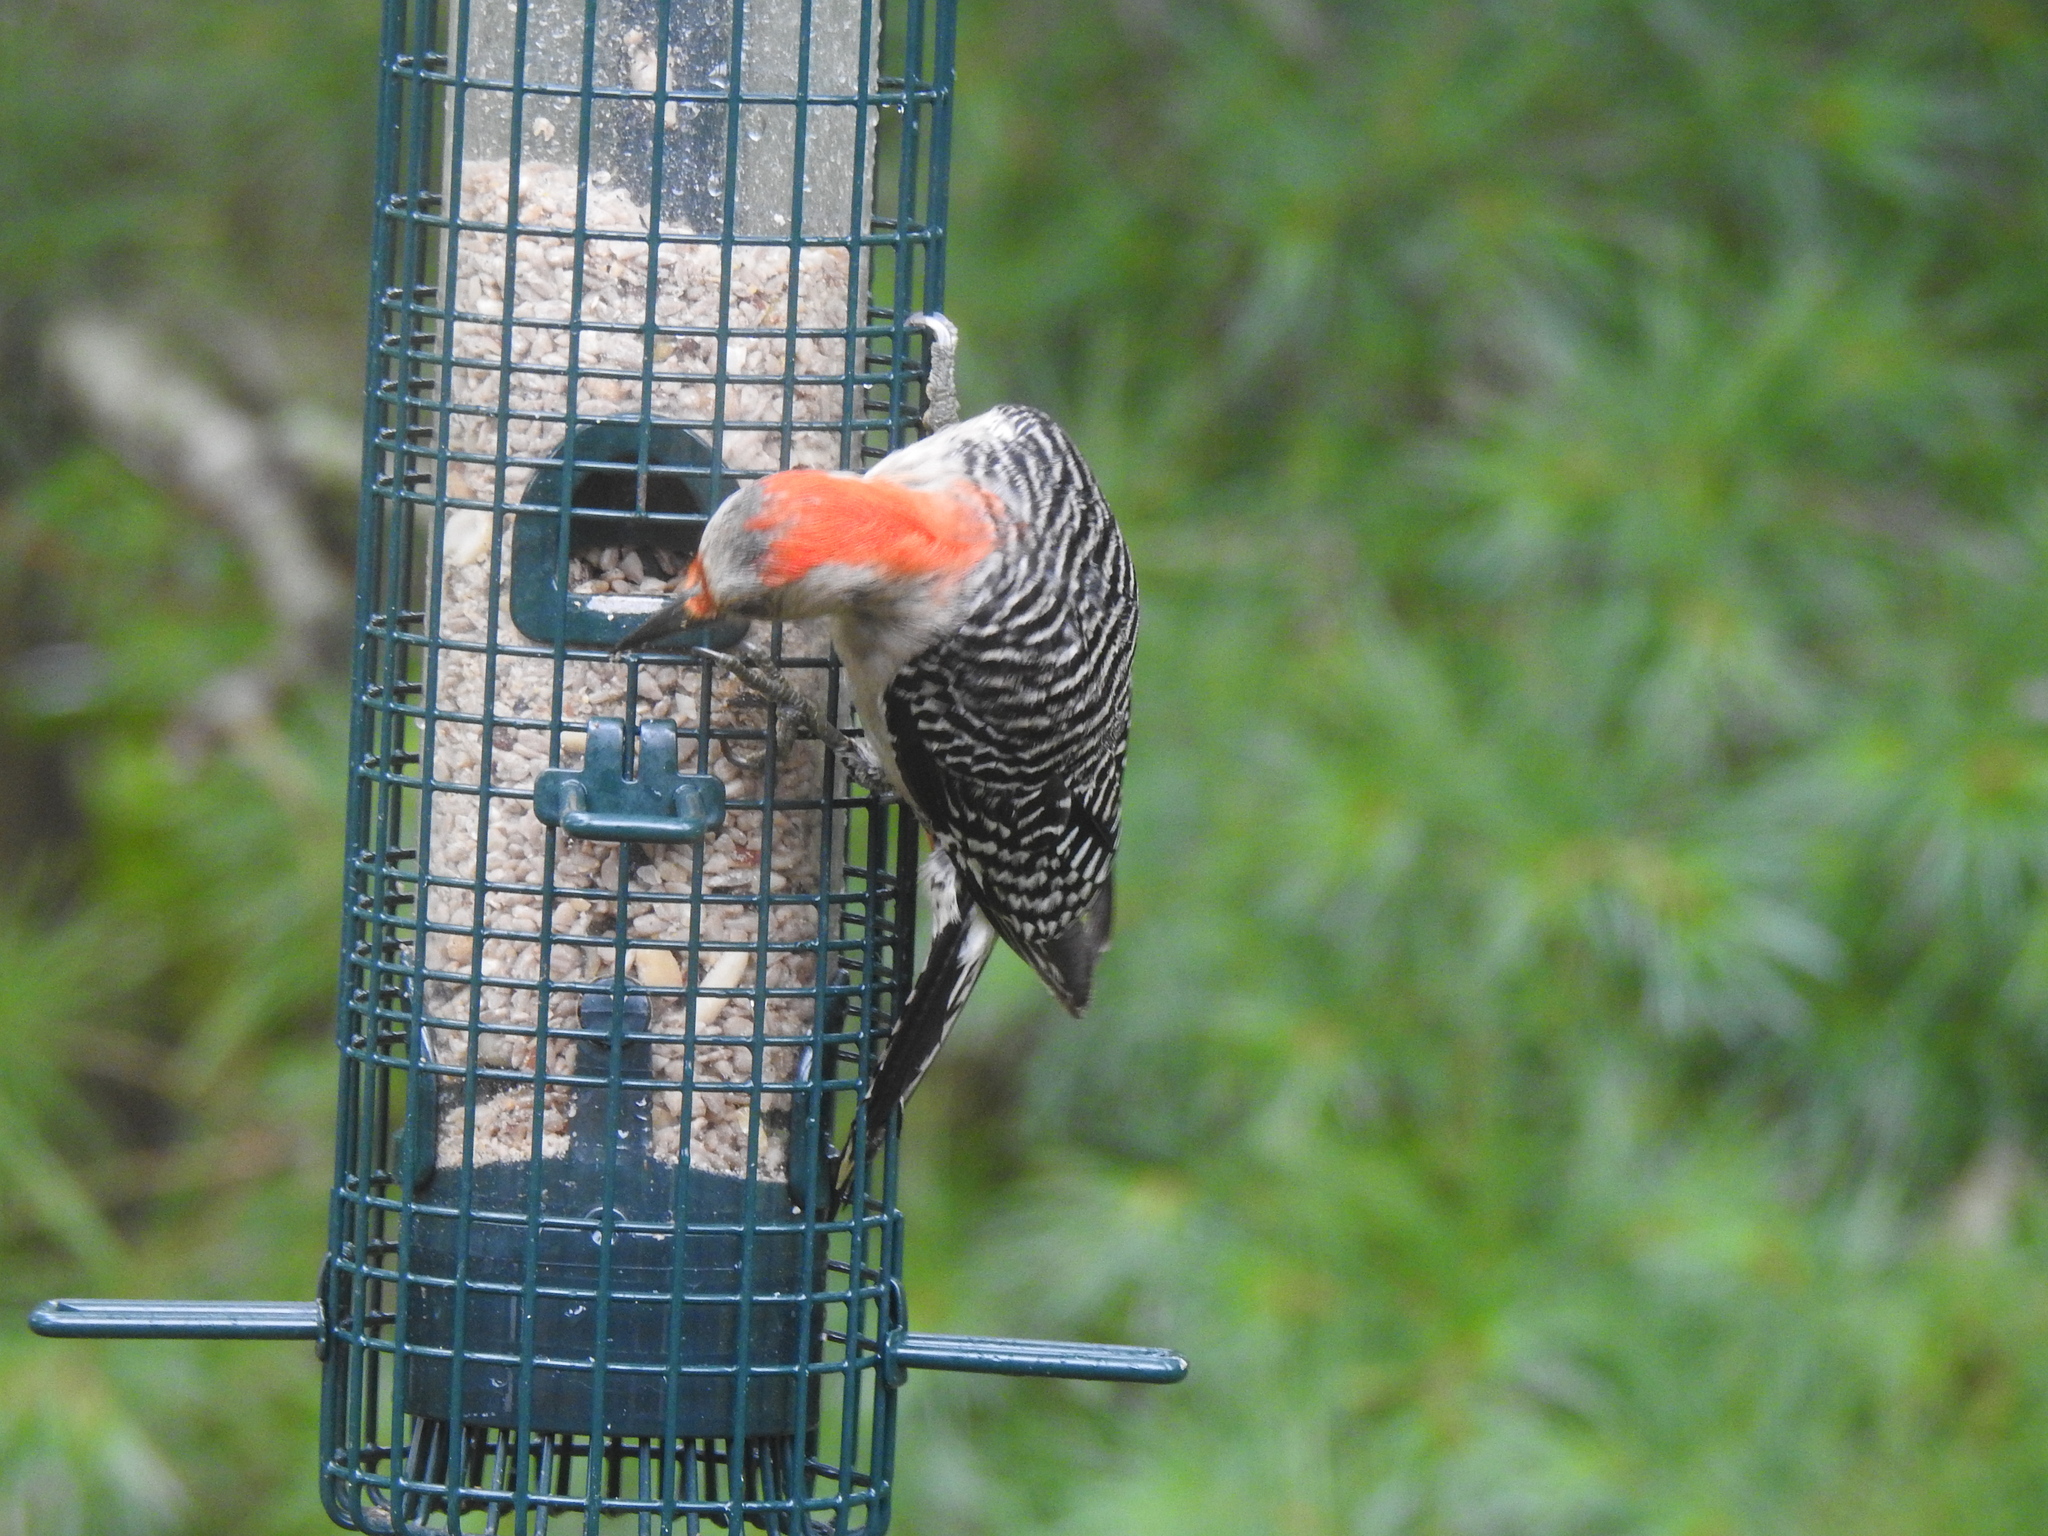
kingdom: Animalia
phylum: Chordata
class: Aves
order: Piciformes
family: Picidae
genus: Melanerpes
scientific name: Melanerpes carolinus
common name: Red-bellied woodpecker
